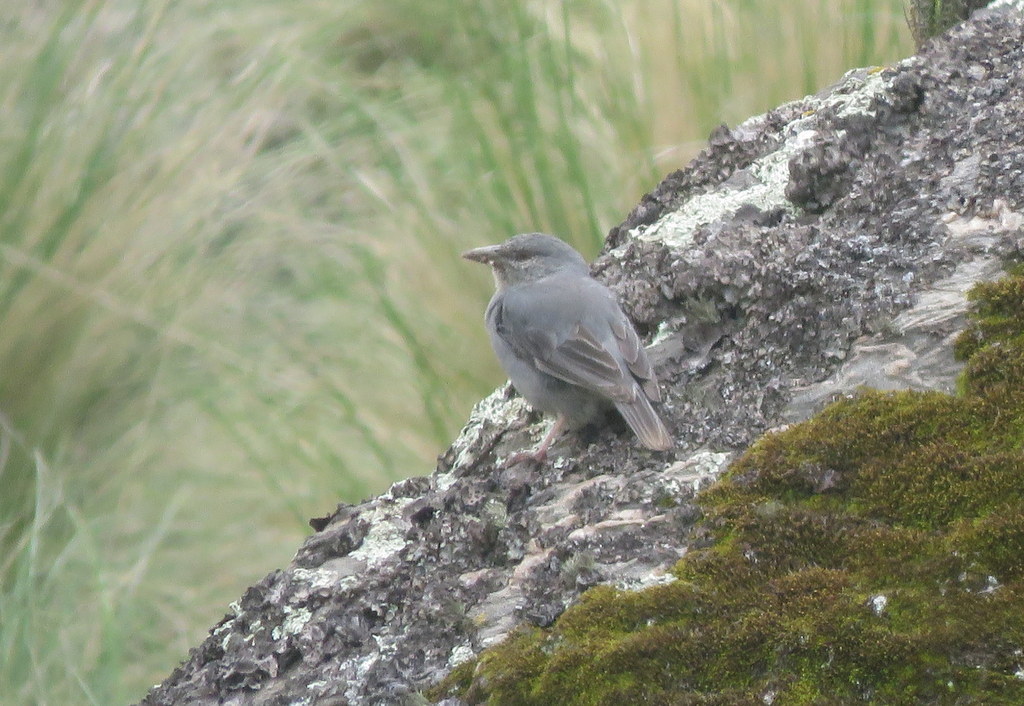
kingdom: Animalia
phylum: Chordata
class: Aves
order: Passeriformes
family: Thraupidae
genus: Idiopsar
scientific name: Idiopsar brachyurus
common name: Short-tailed finch
